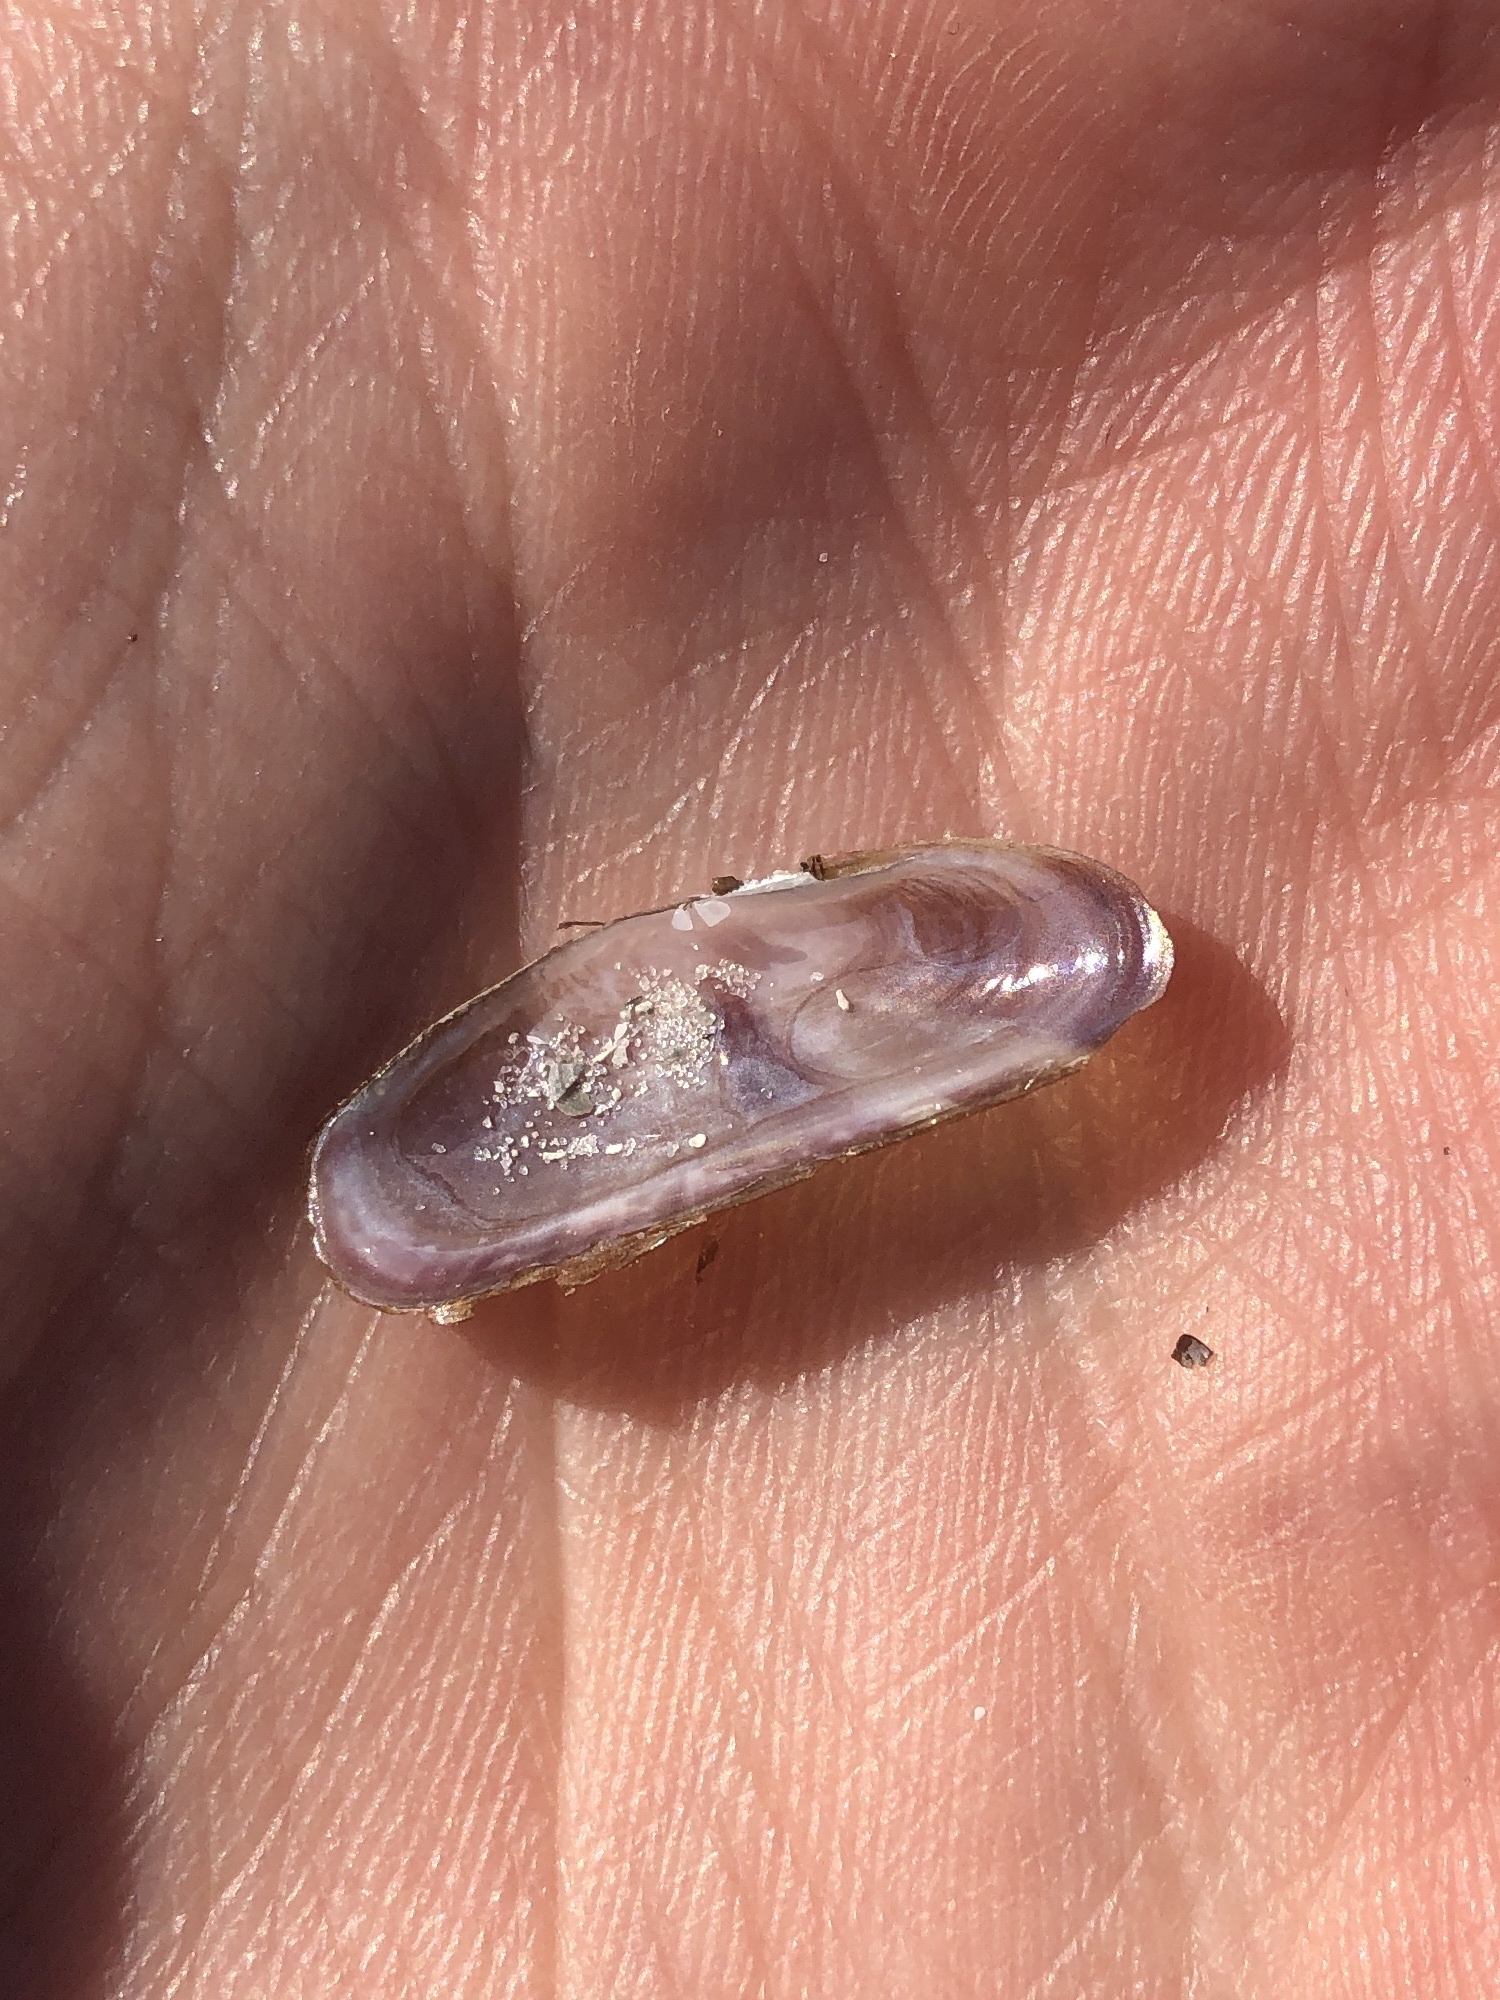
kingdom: Animalia
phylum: Mollusca
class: Bivalvia
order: Cardiida
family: Solecurtidae
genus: Tagelus
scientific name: Tagelus divisus
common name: Purplish tagelus
